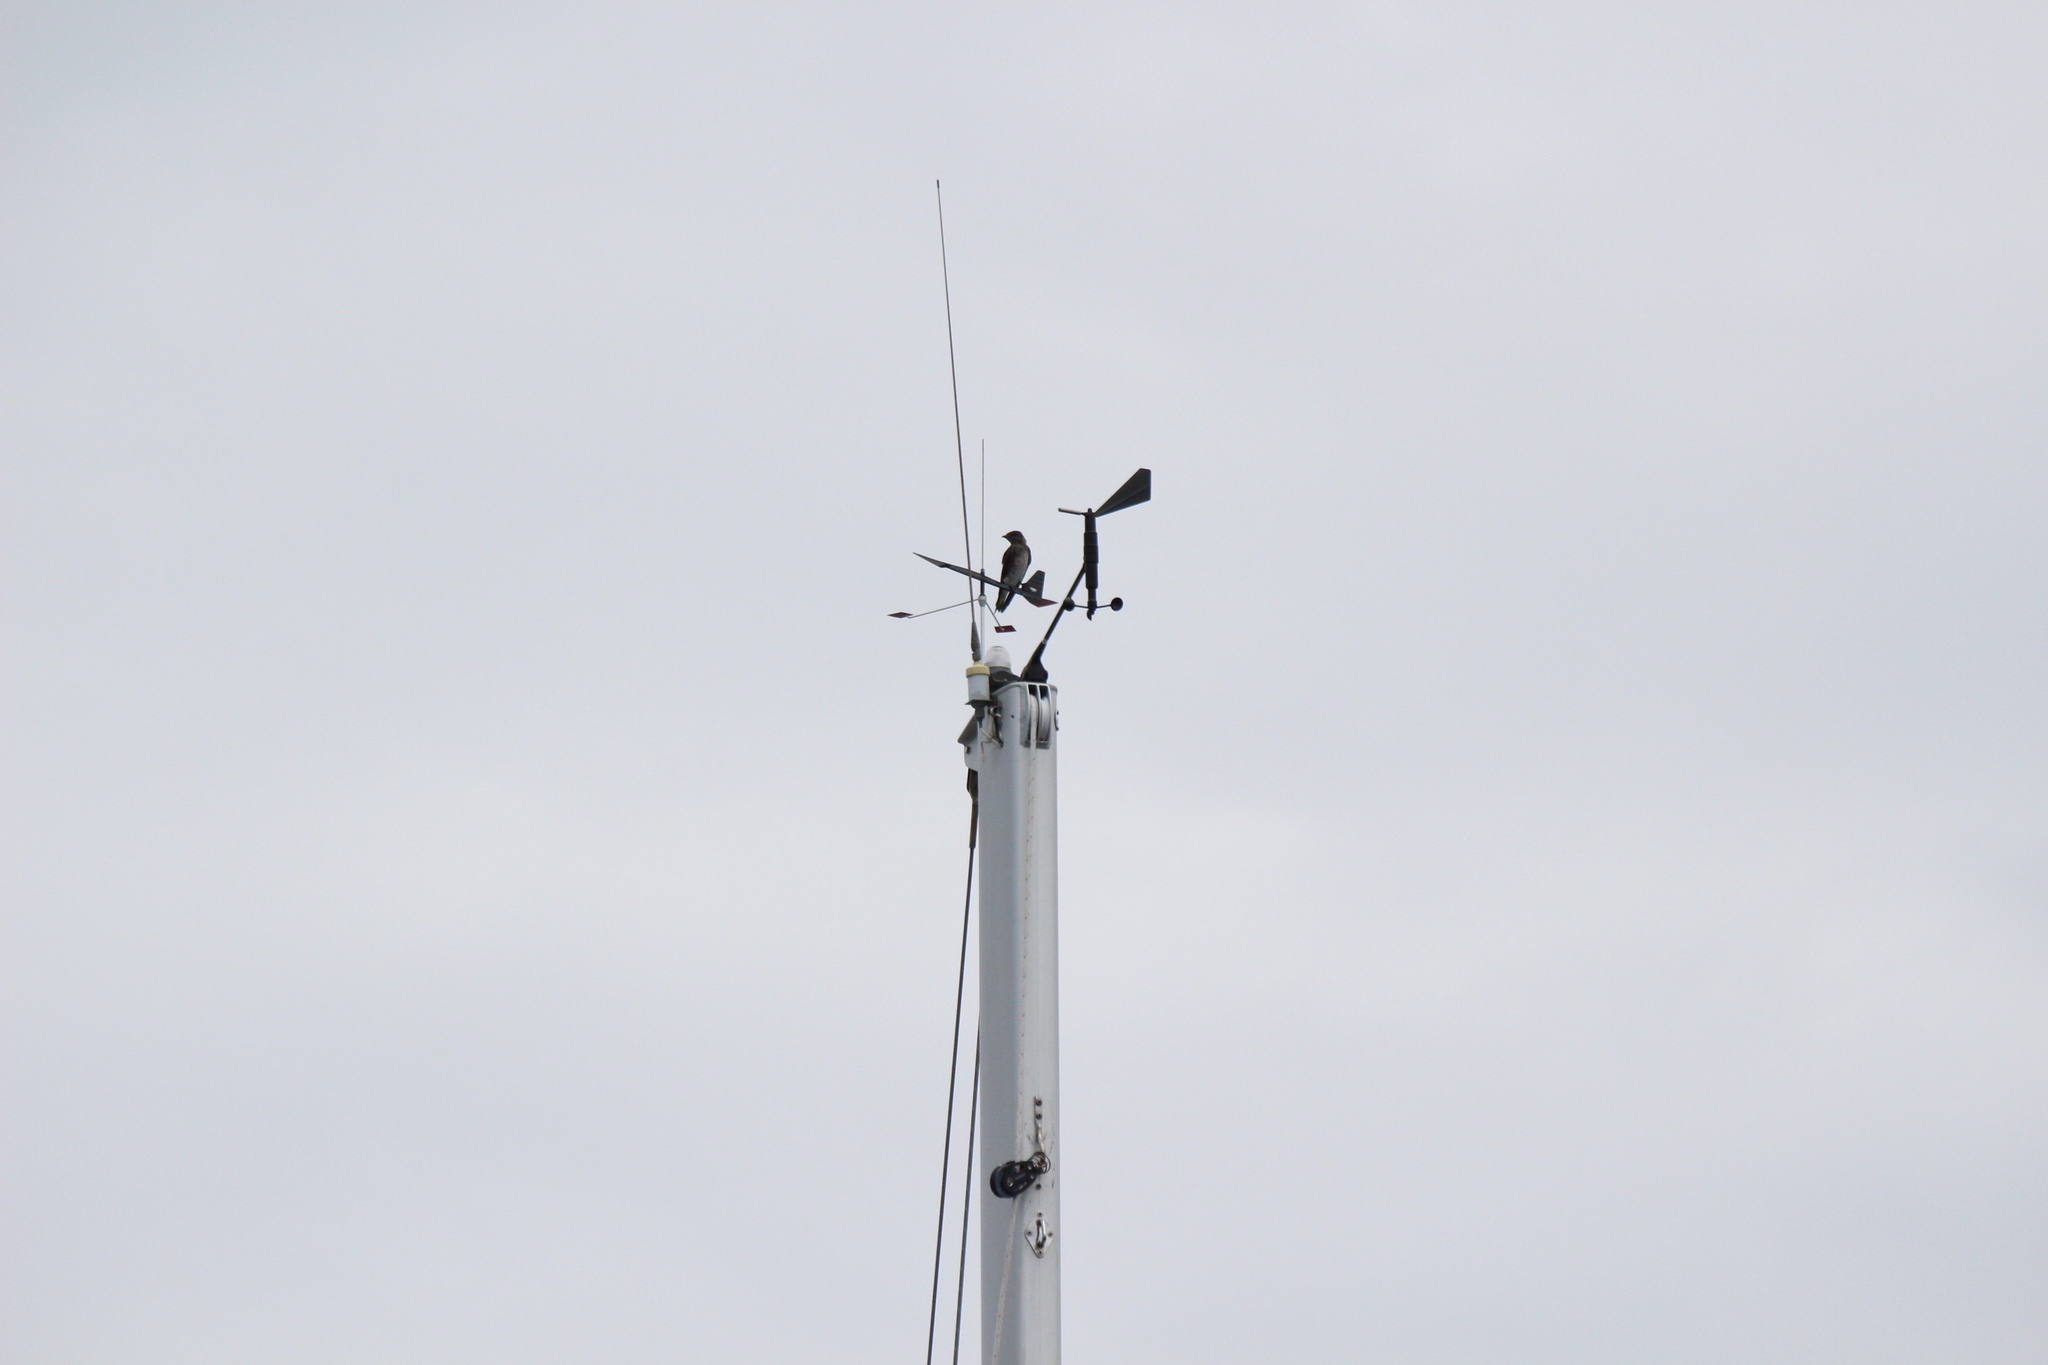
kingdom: Animalia
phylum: Chordata
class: Aves
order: Passeriformes
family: Hirundinidae
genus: Progne
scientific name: Progne subis
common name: Purple martin
